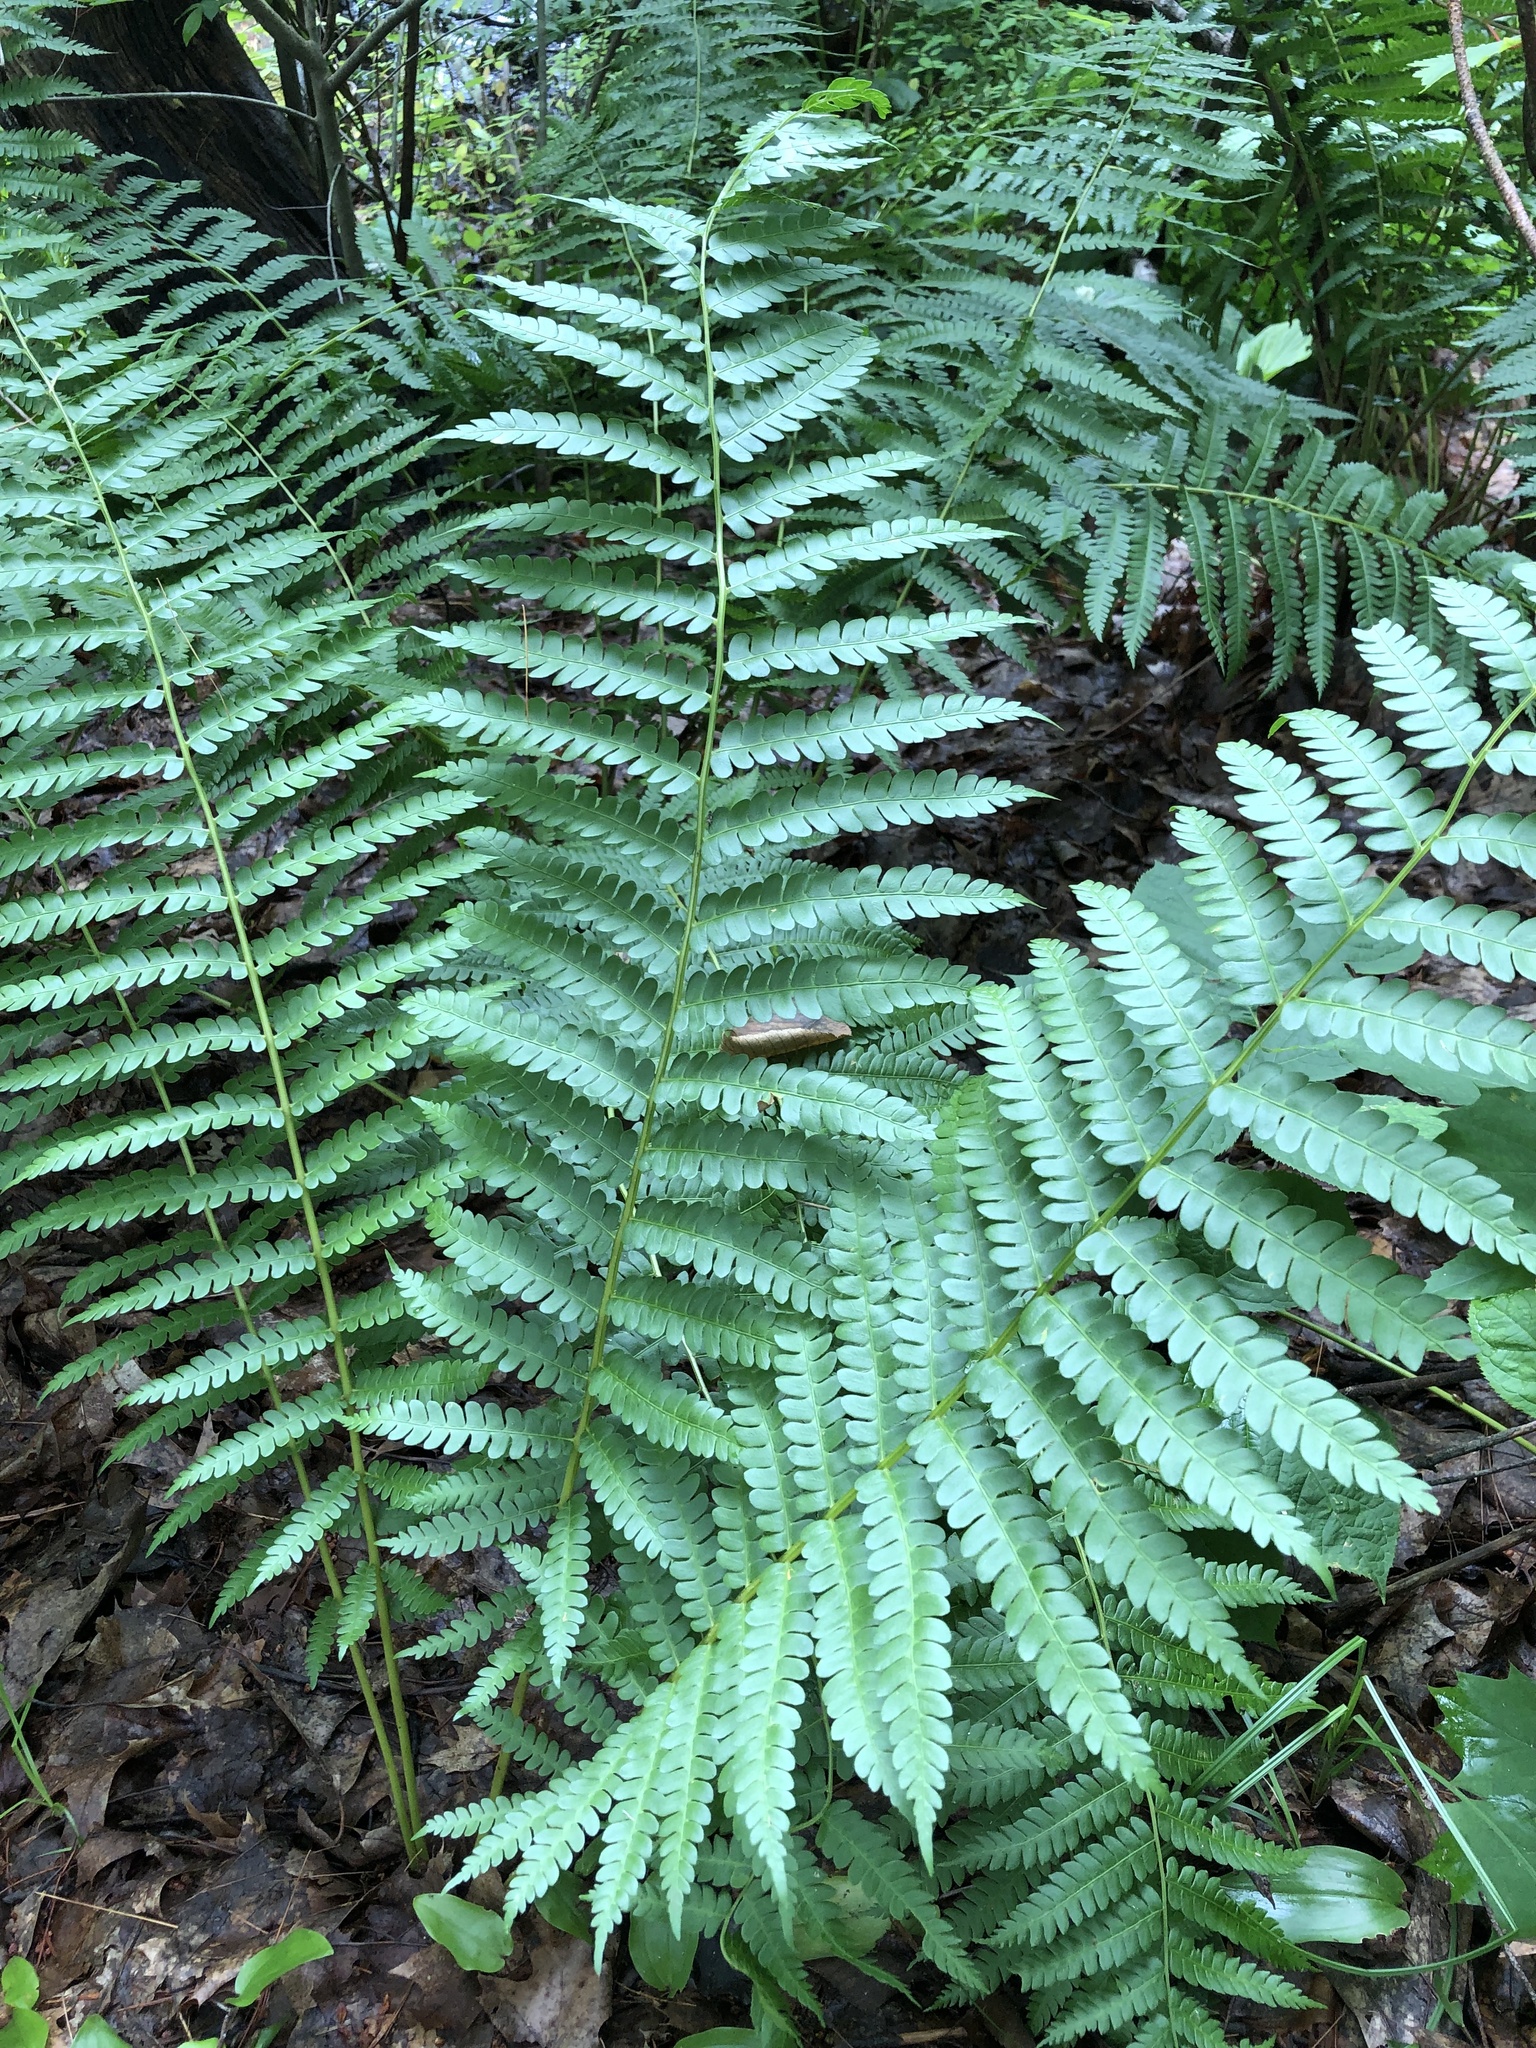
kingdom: Plantae
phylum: Tracheophyta
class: Polypodiopsida
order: Osmundales
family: Osmundaceae
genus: Osmundastrum
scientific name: Osmundastrum cinnamomeum
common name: Cinnamon fern
